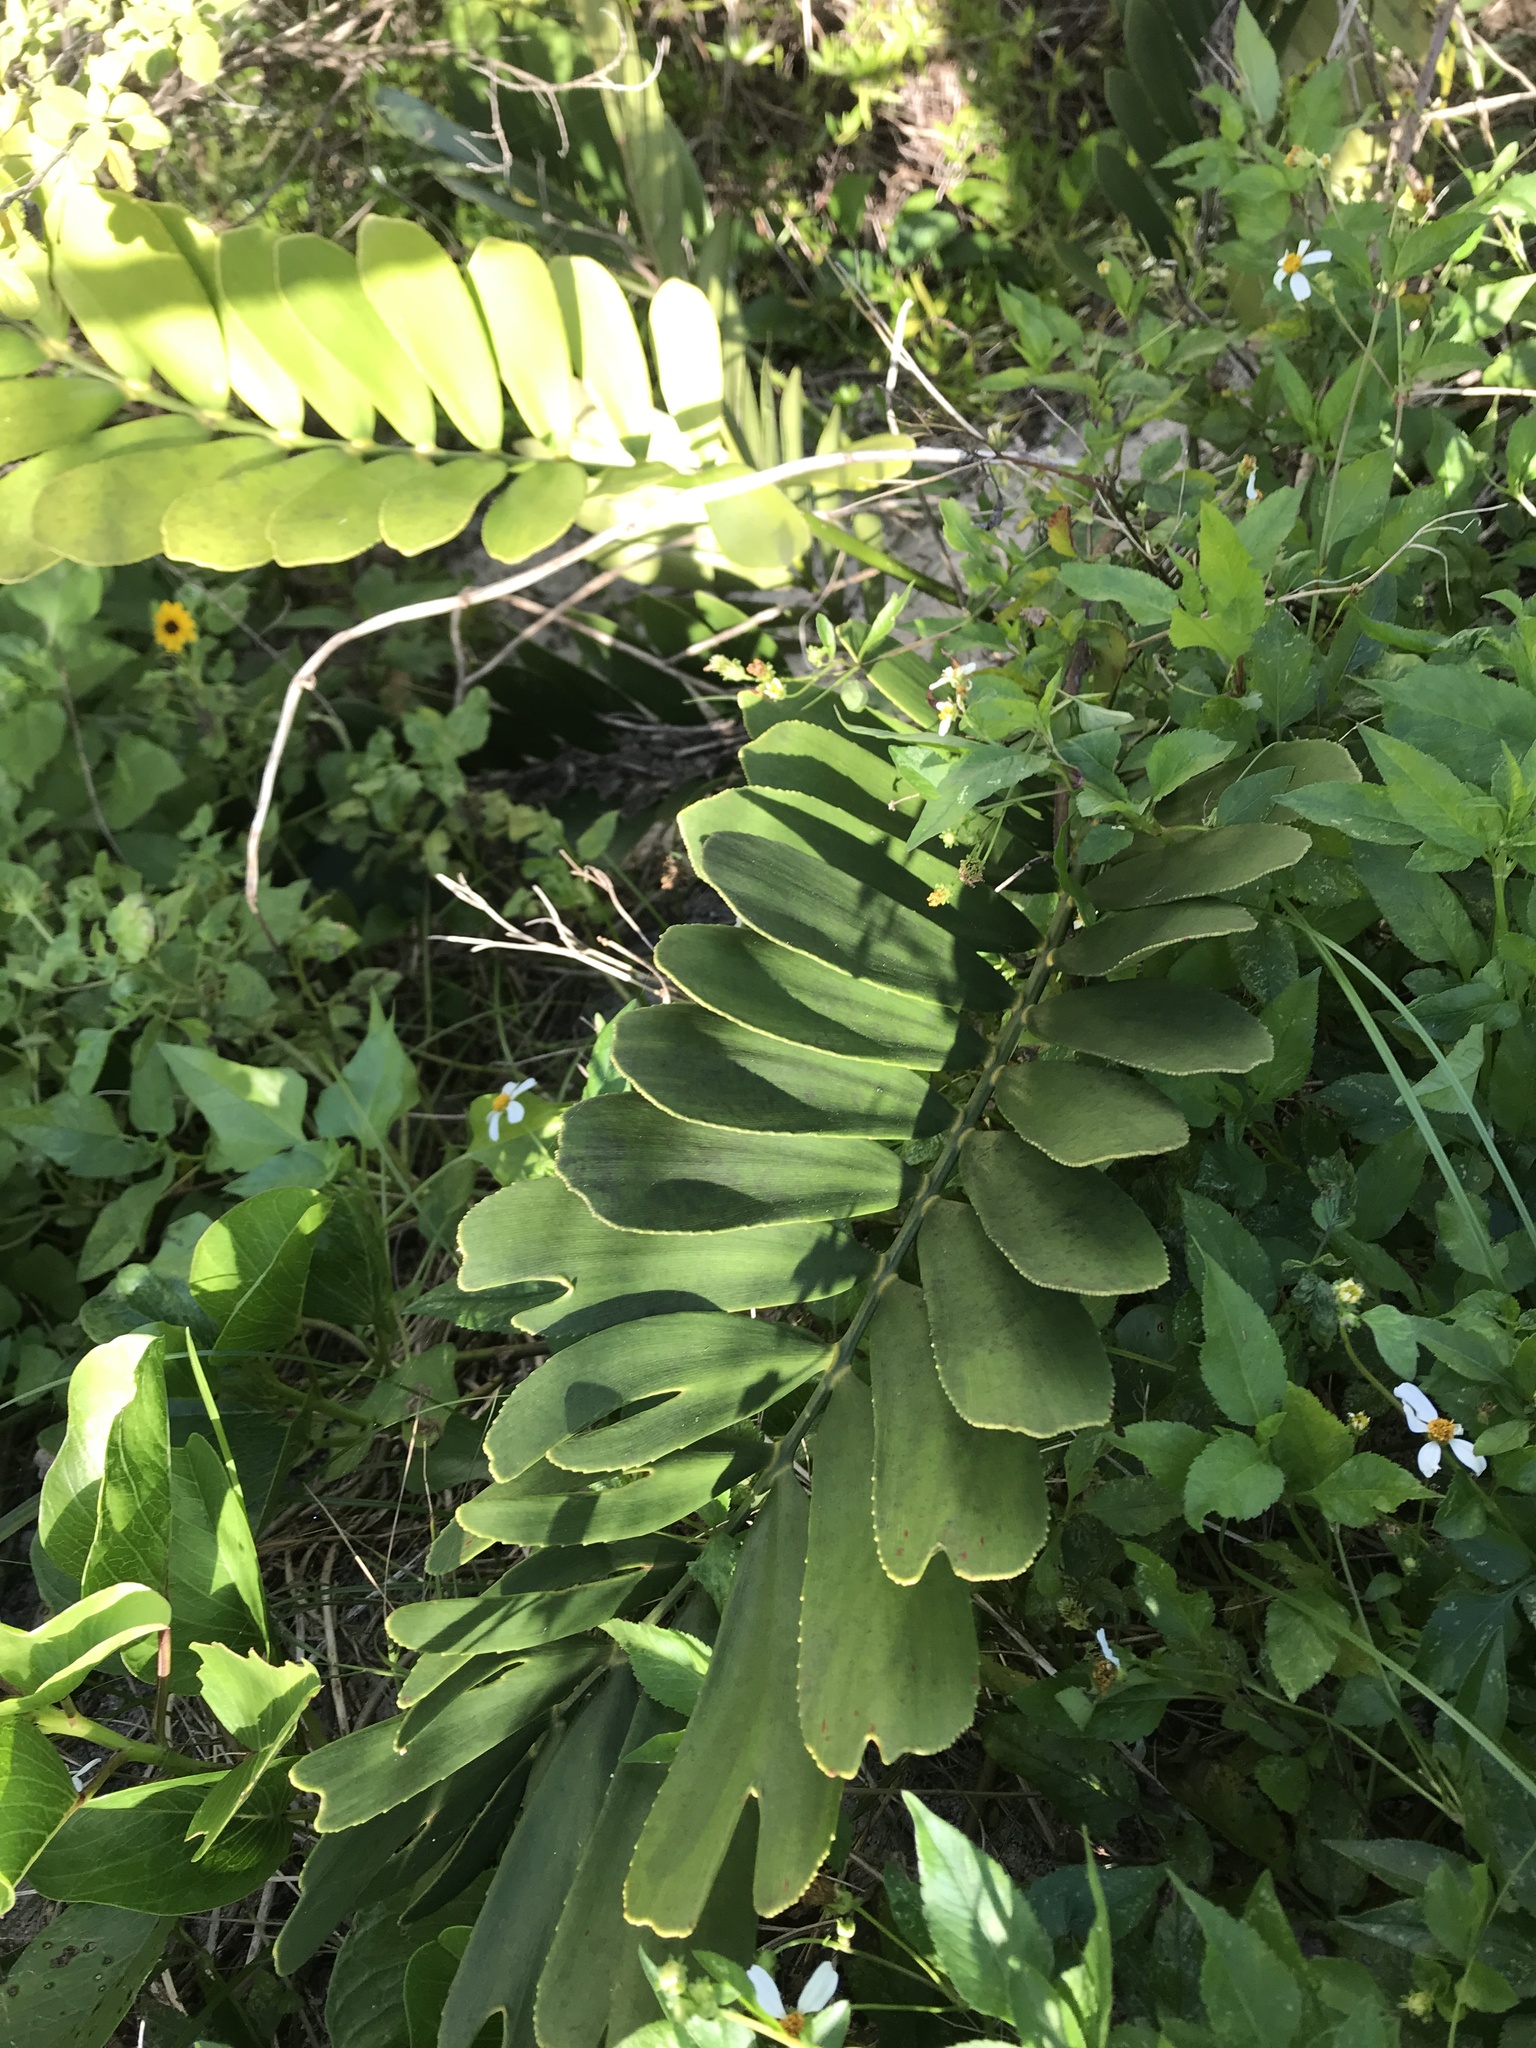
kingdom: Plantae
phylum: Tracheophyta
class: Cycadopsida
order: Cycadales
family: Zamiaceae
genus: Zamia
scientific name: Zamia furfuracea
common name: Cardboard palm
